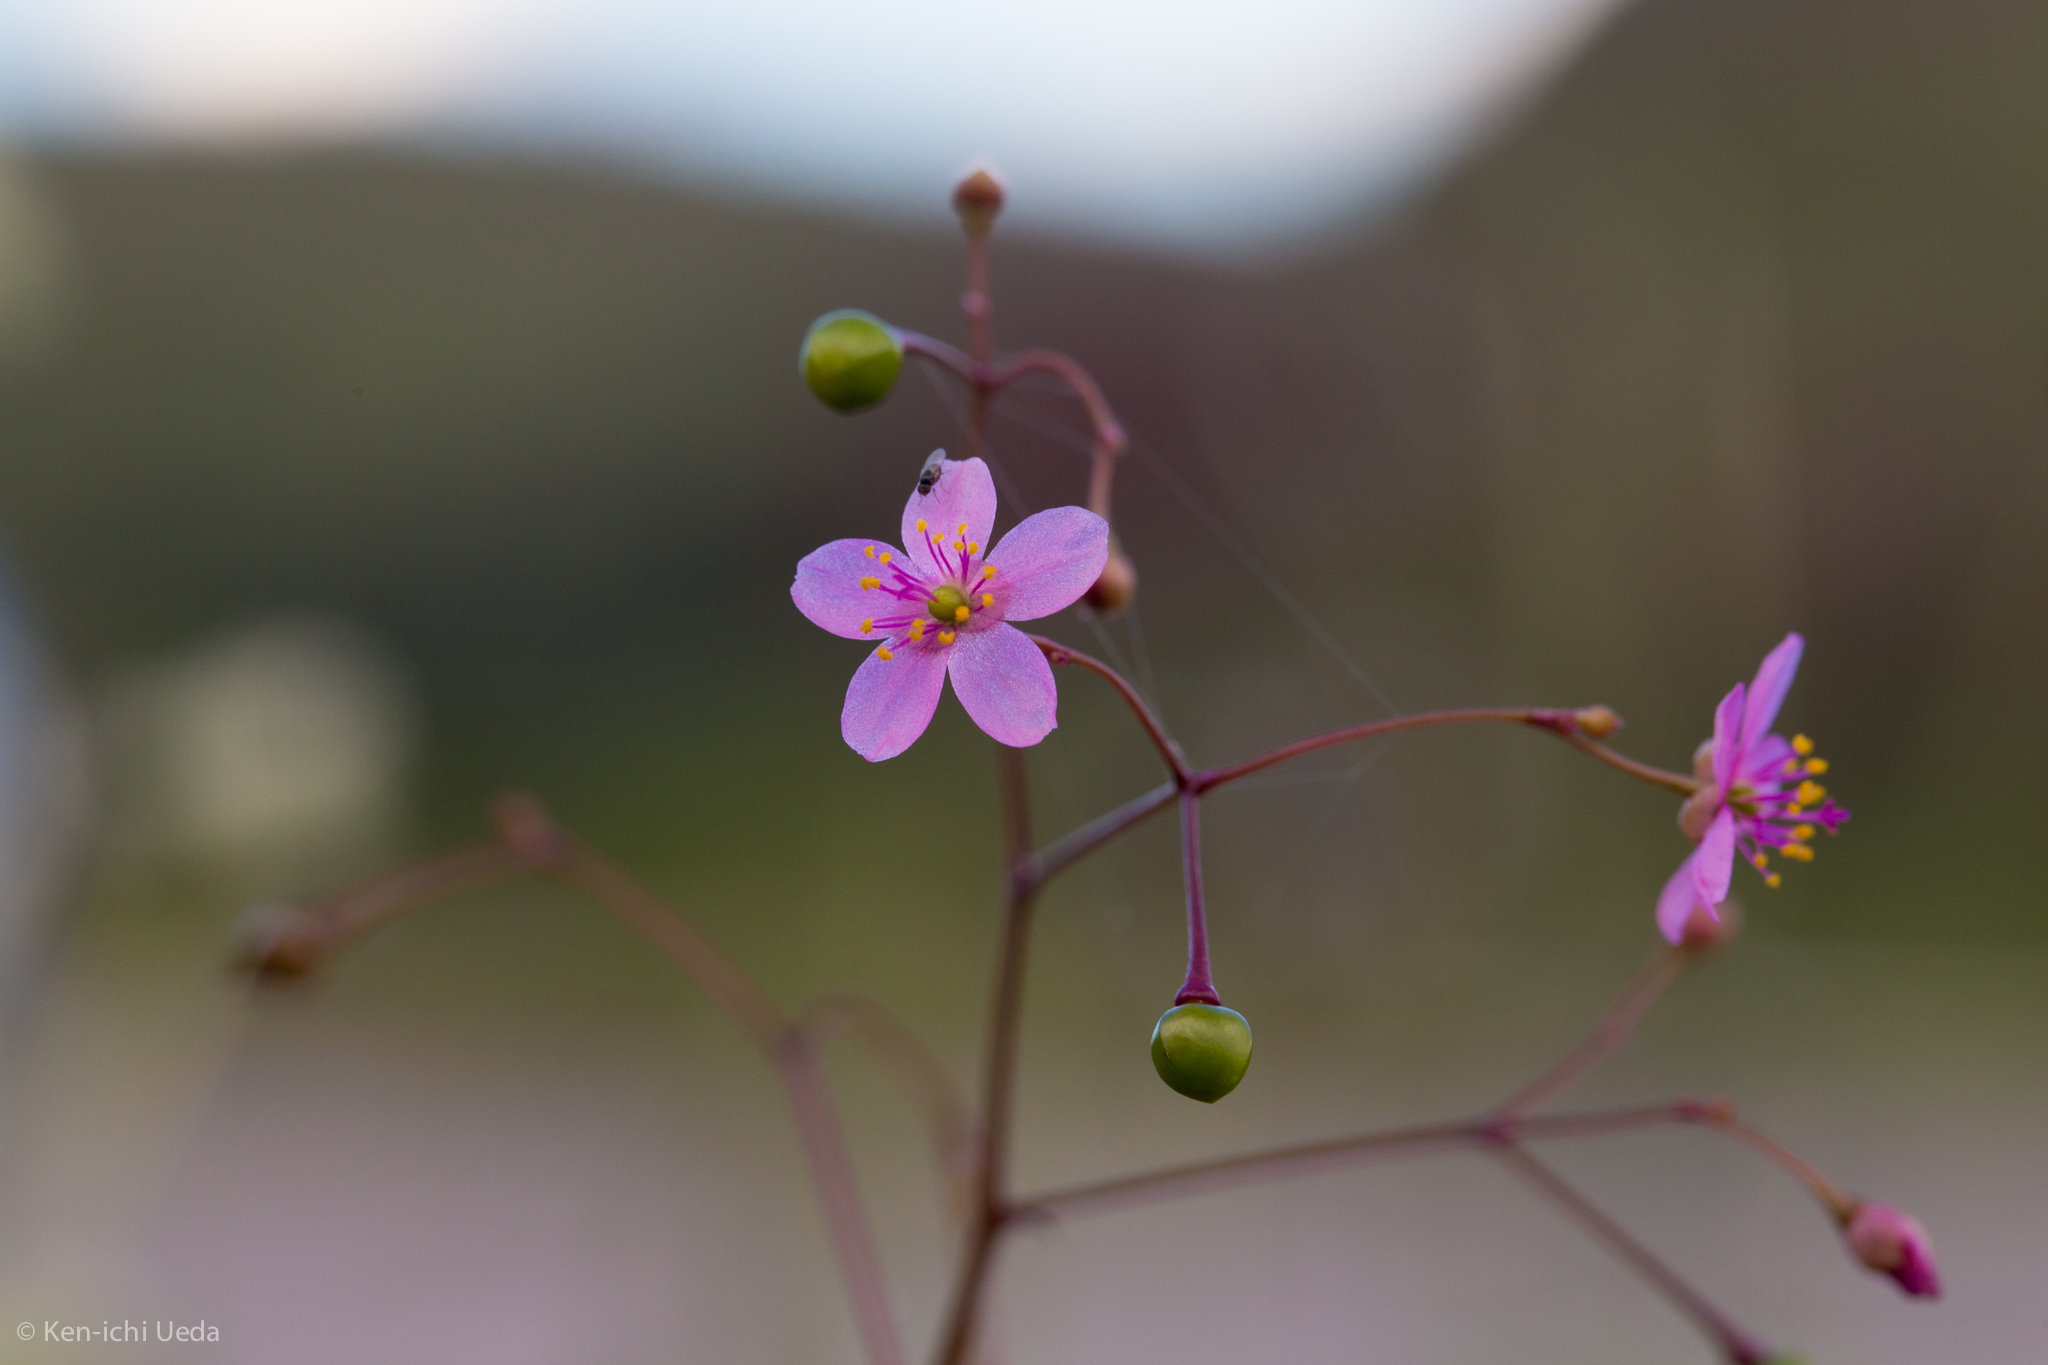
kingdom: Plantae
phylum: Tracheophyta
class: Magnoliopsida
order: Caryophyllales
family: Talinaceae
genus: Talinum
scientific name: Talinum paniculatum
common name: Jewels of opar
